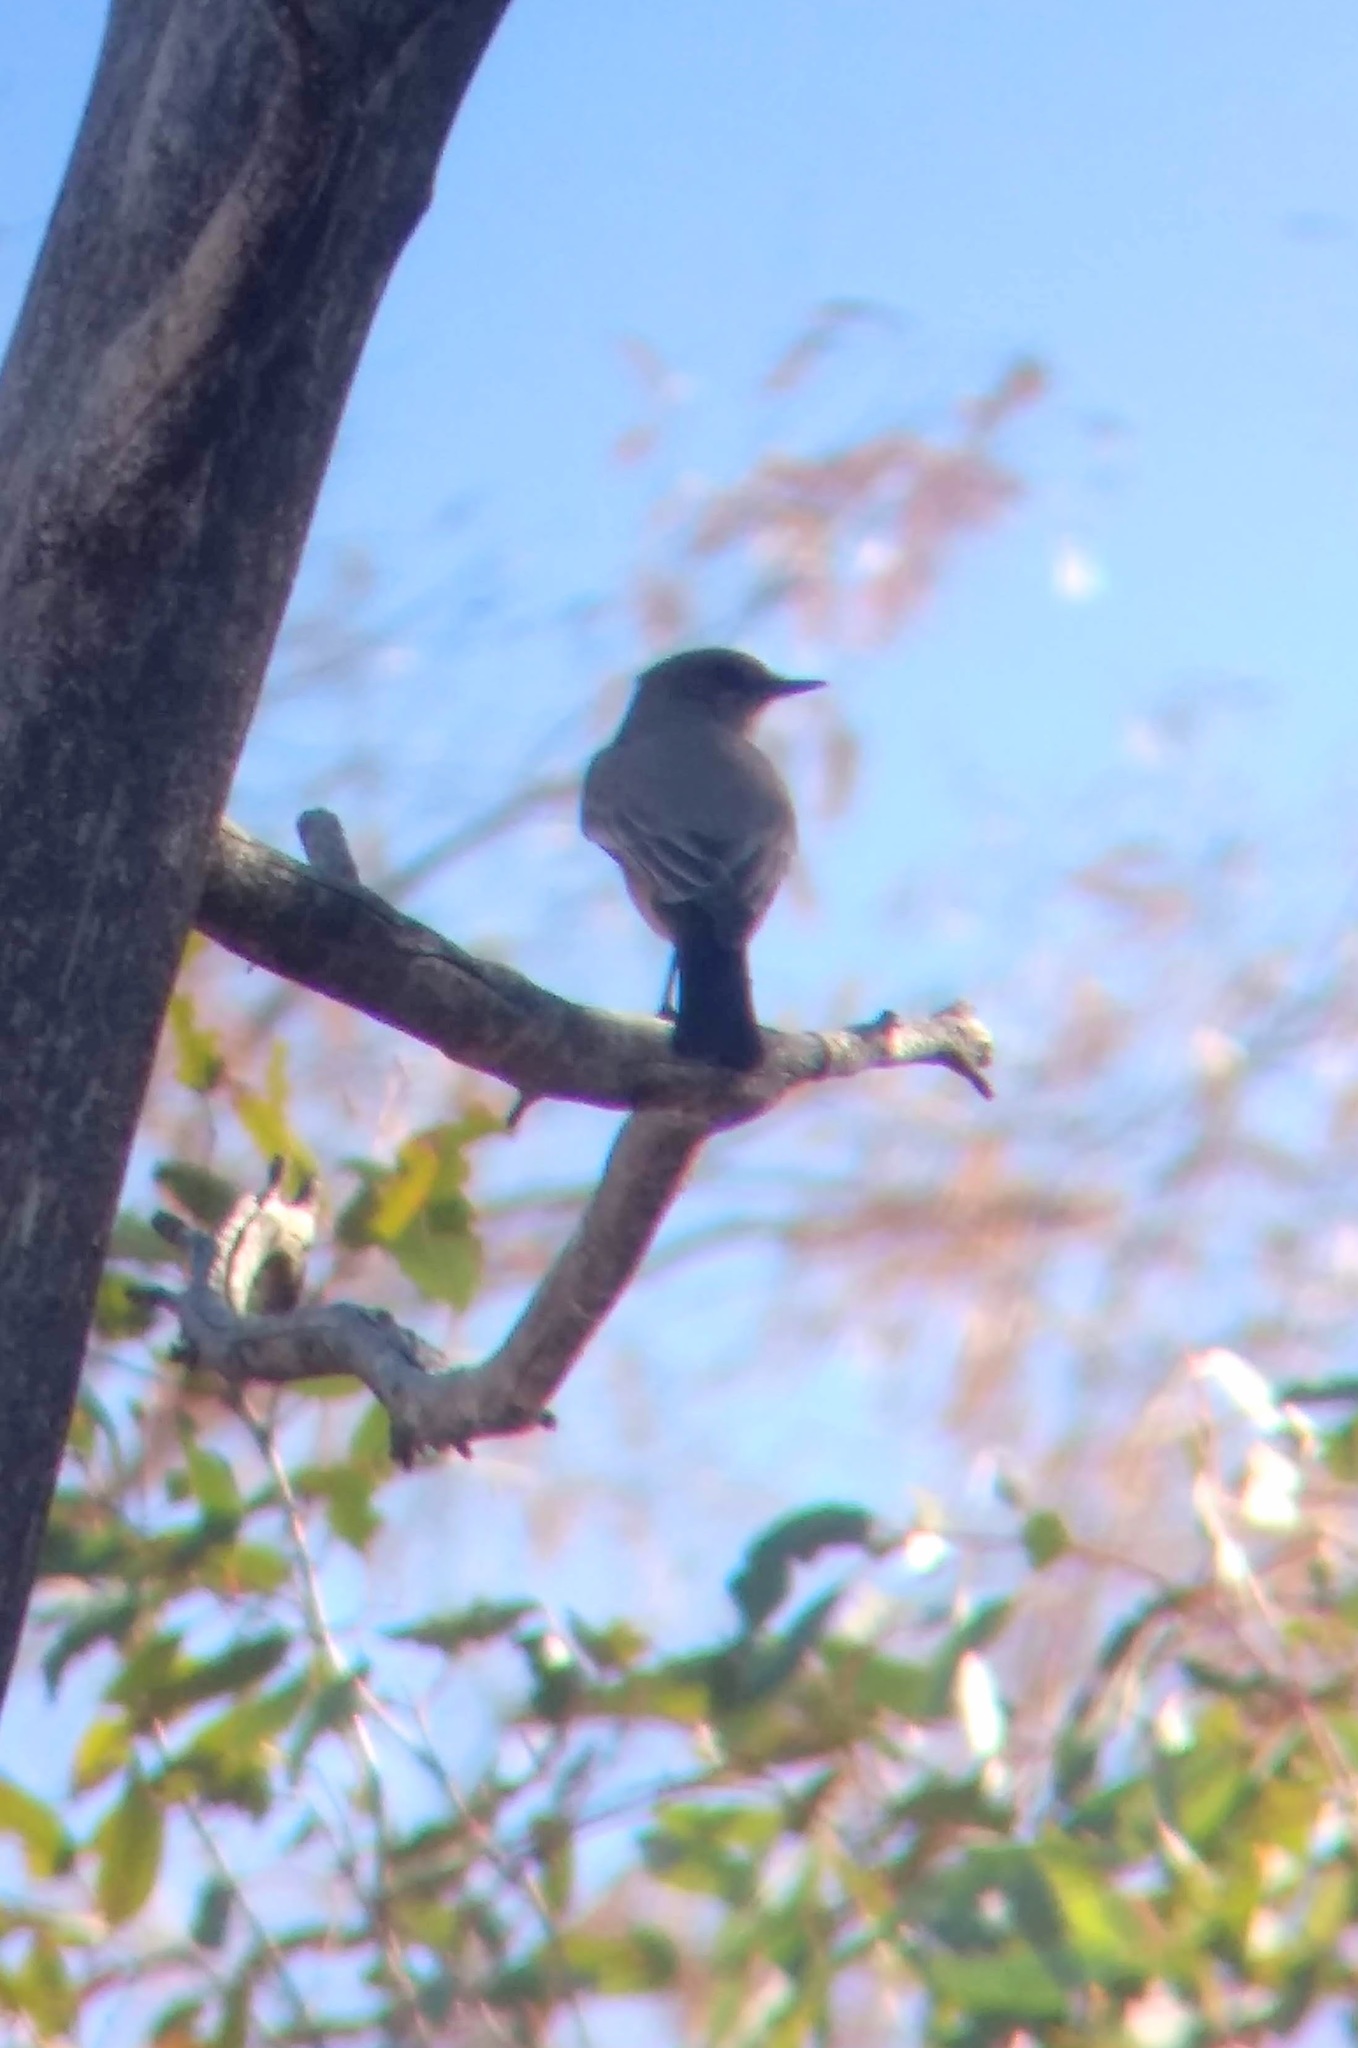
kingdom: Animalia
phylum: Chordata
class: Aves
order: Passeriformes
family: Tyrannidae
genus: Sayornis
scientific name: Sayornis saya
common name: Say's phoebe
